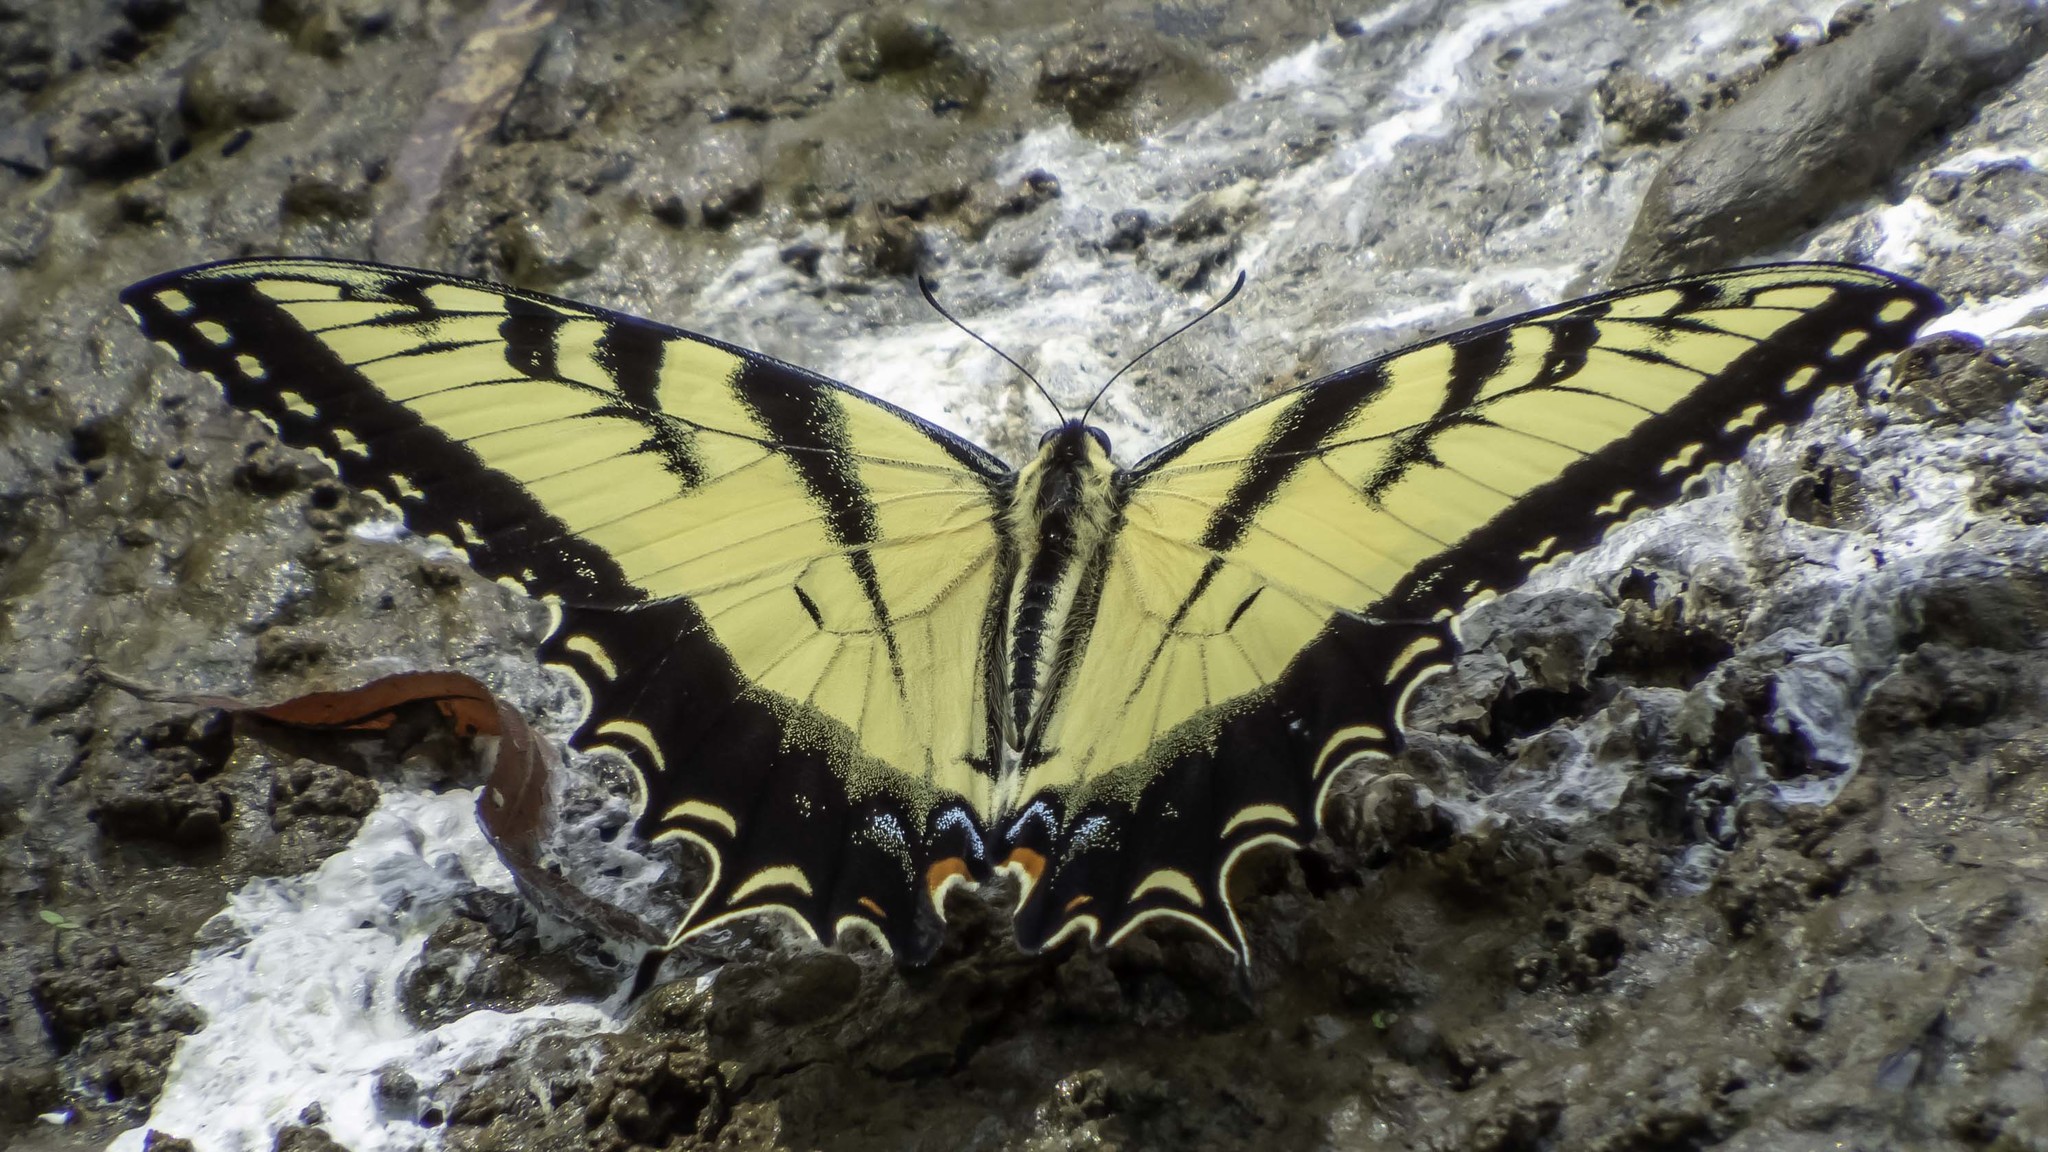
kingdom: Animalia
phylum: Arthropoda
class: Insecta
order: Lepidoptera
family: Papilionidae
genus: Papilio
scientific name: Papilio glaucus
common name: Tiger swallowtail
